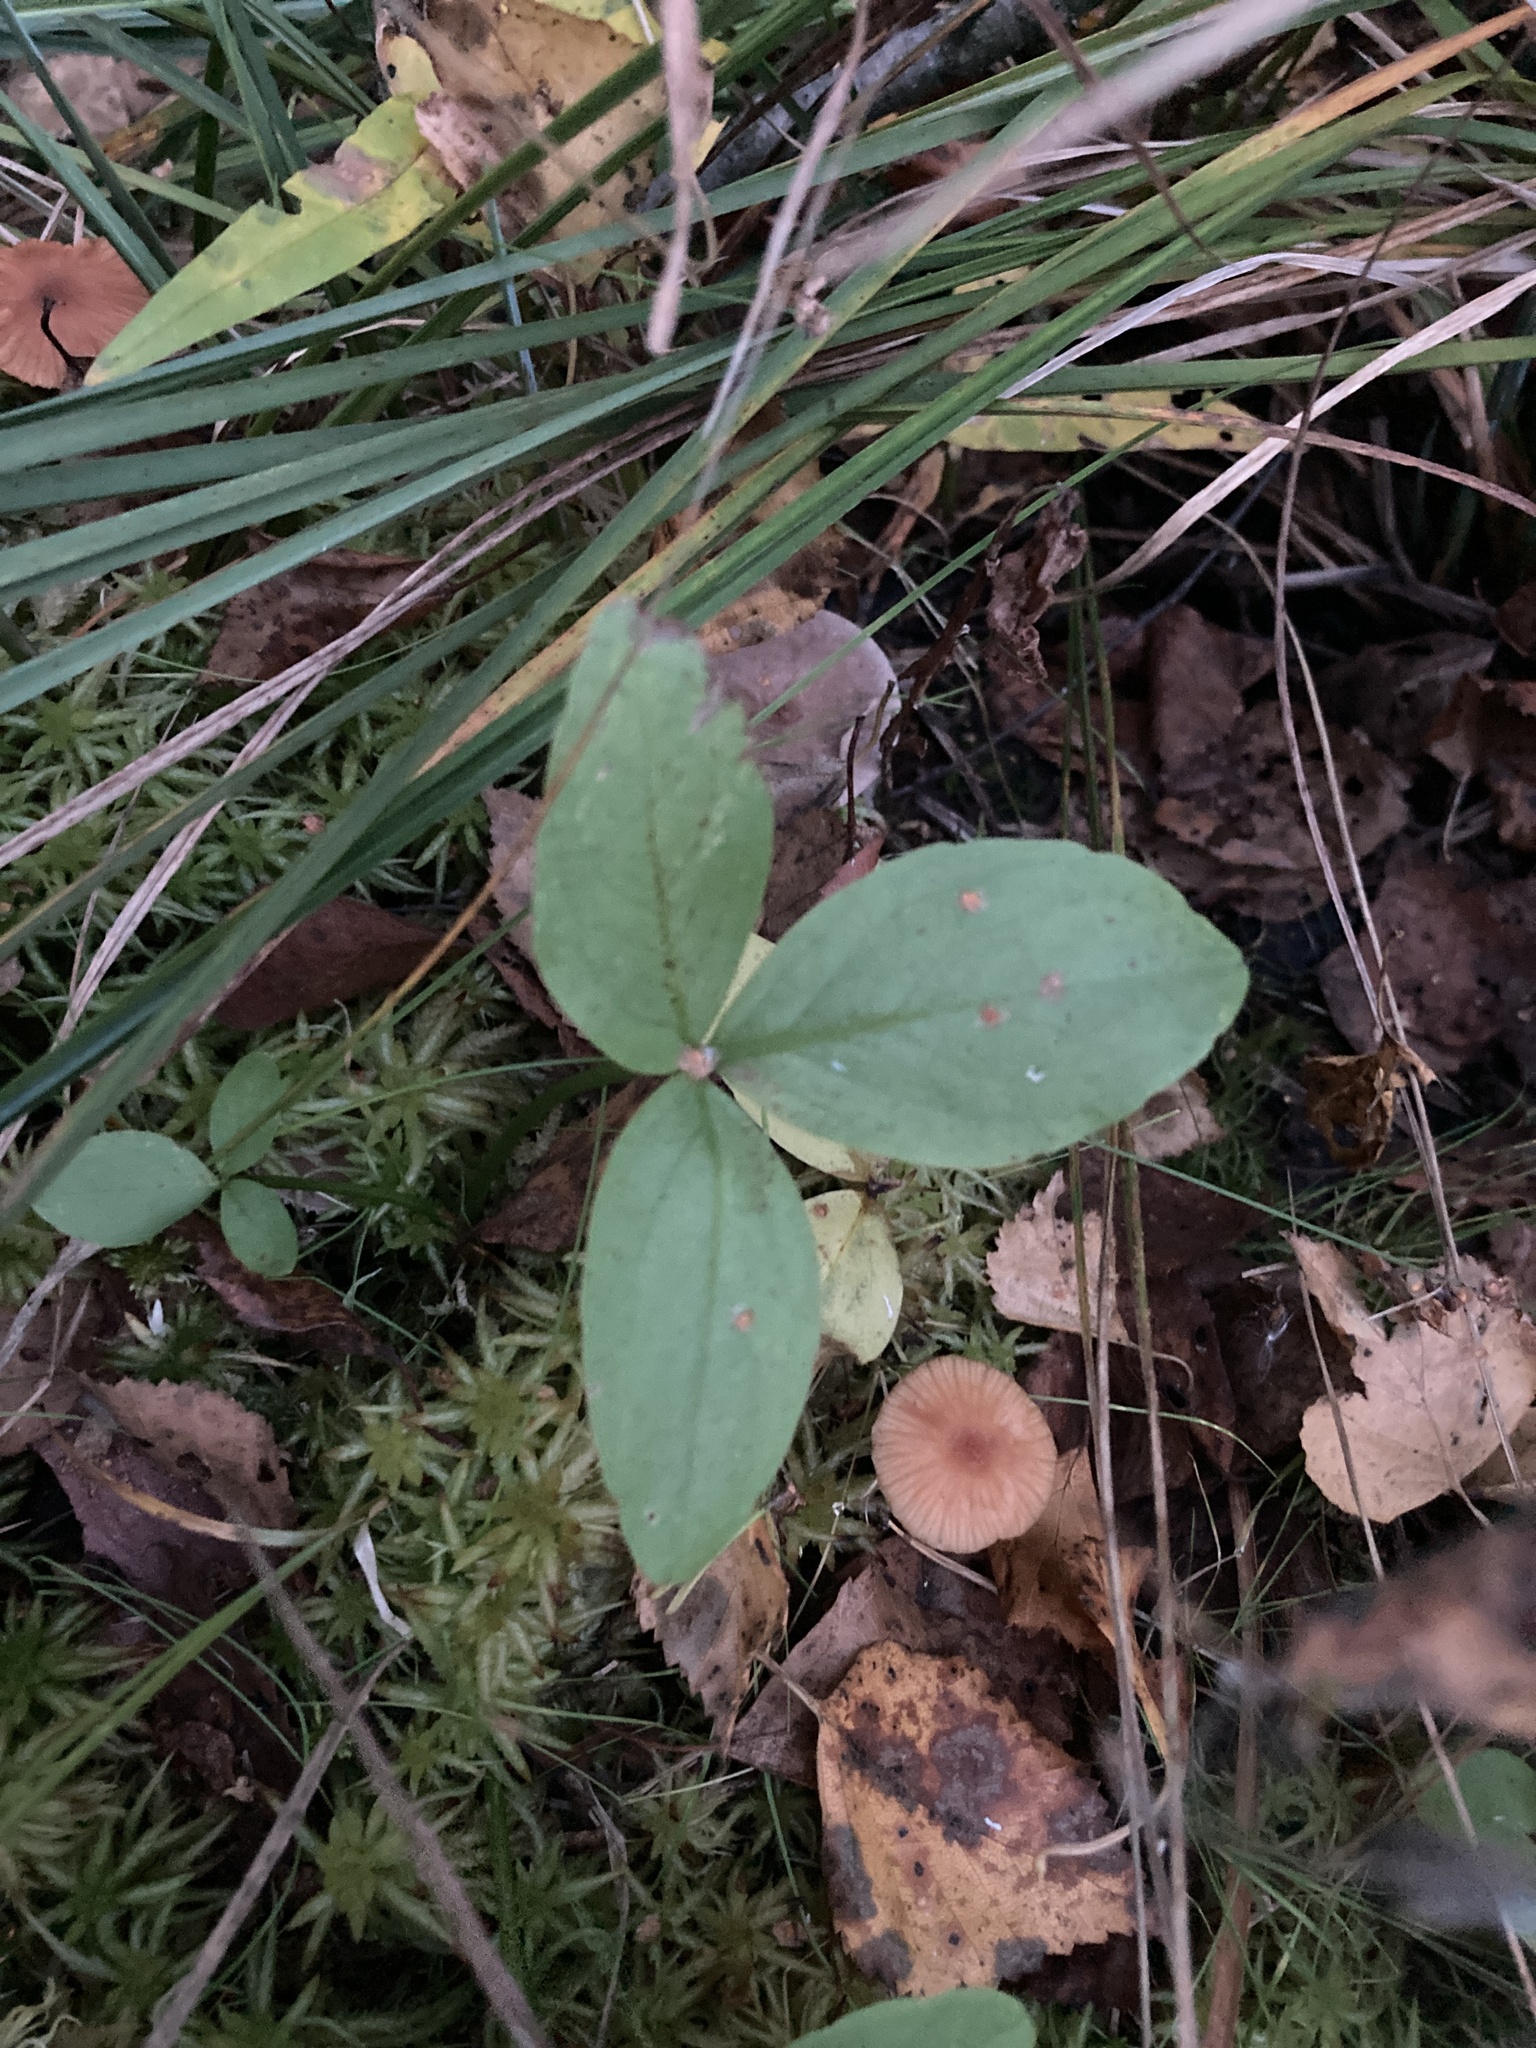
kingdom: Plantae
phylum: Tracheophyta
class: Magnoliopsida
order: Asterales
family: Menyanthaceae
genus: Menyanthes
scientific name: Menyanthes trifoliata
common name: Bogbean
